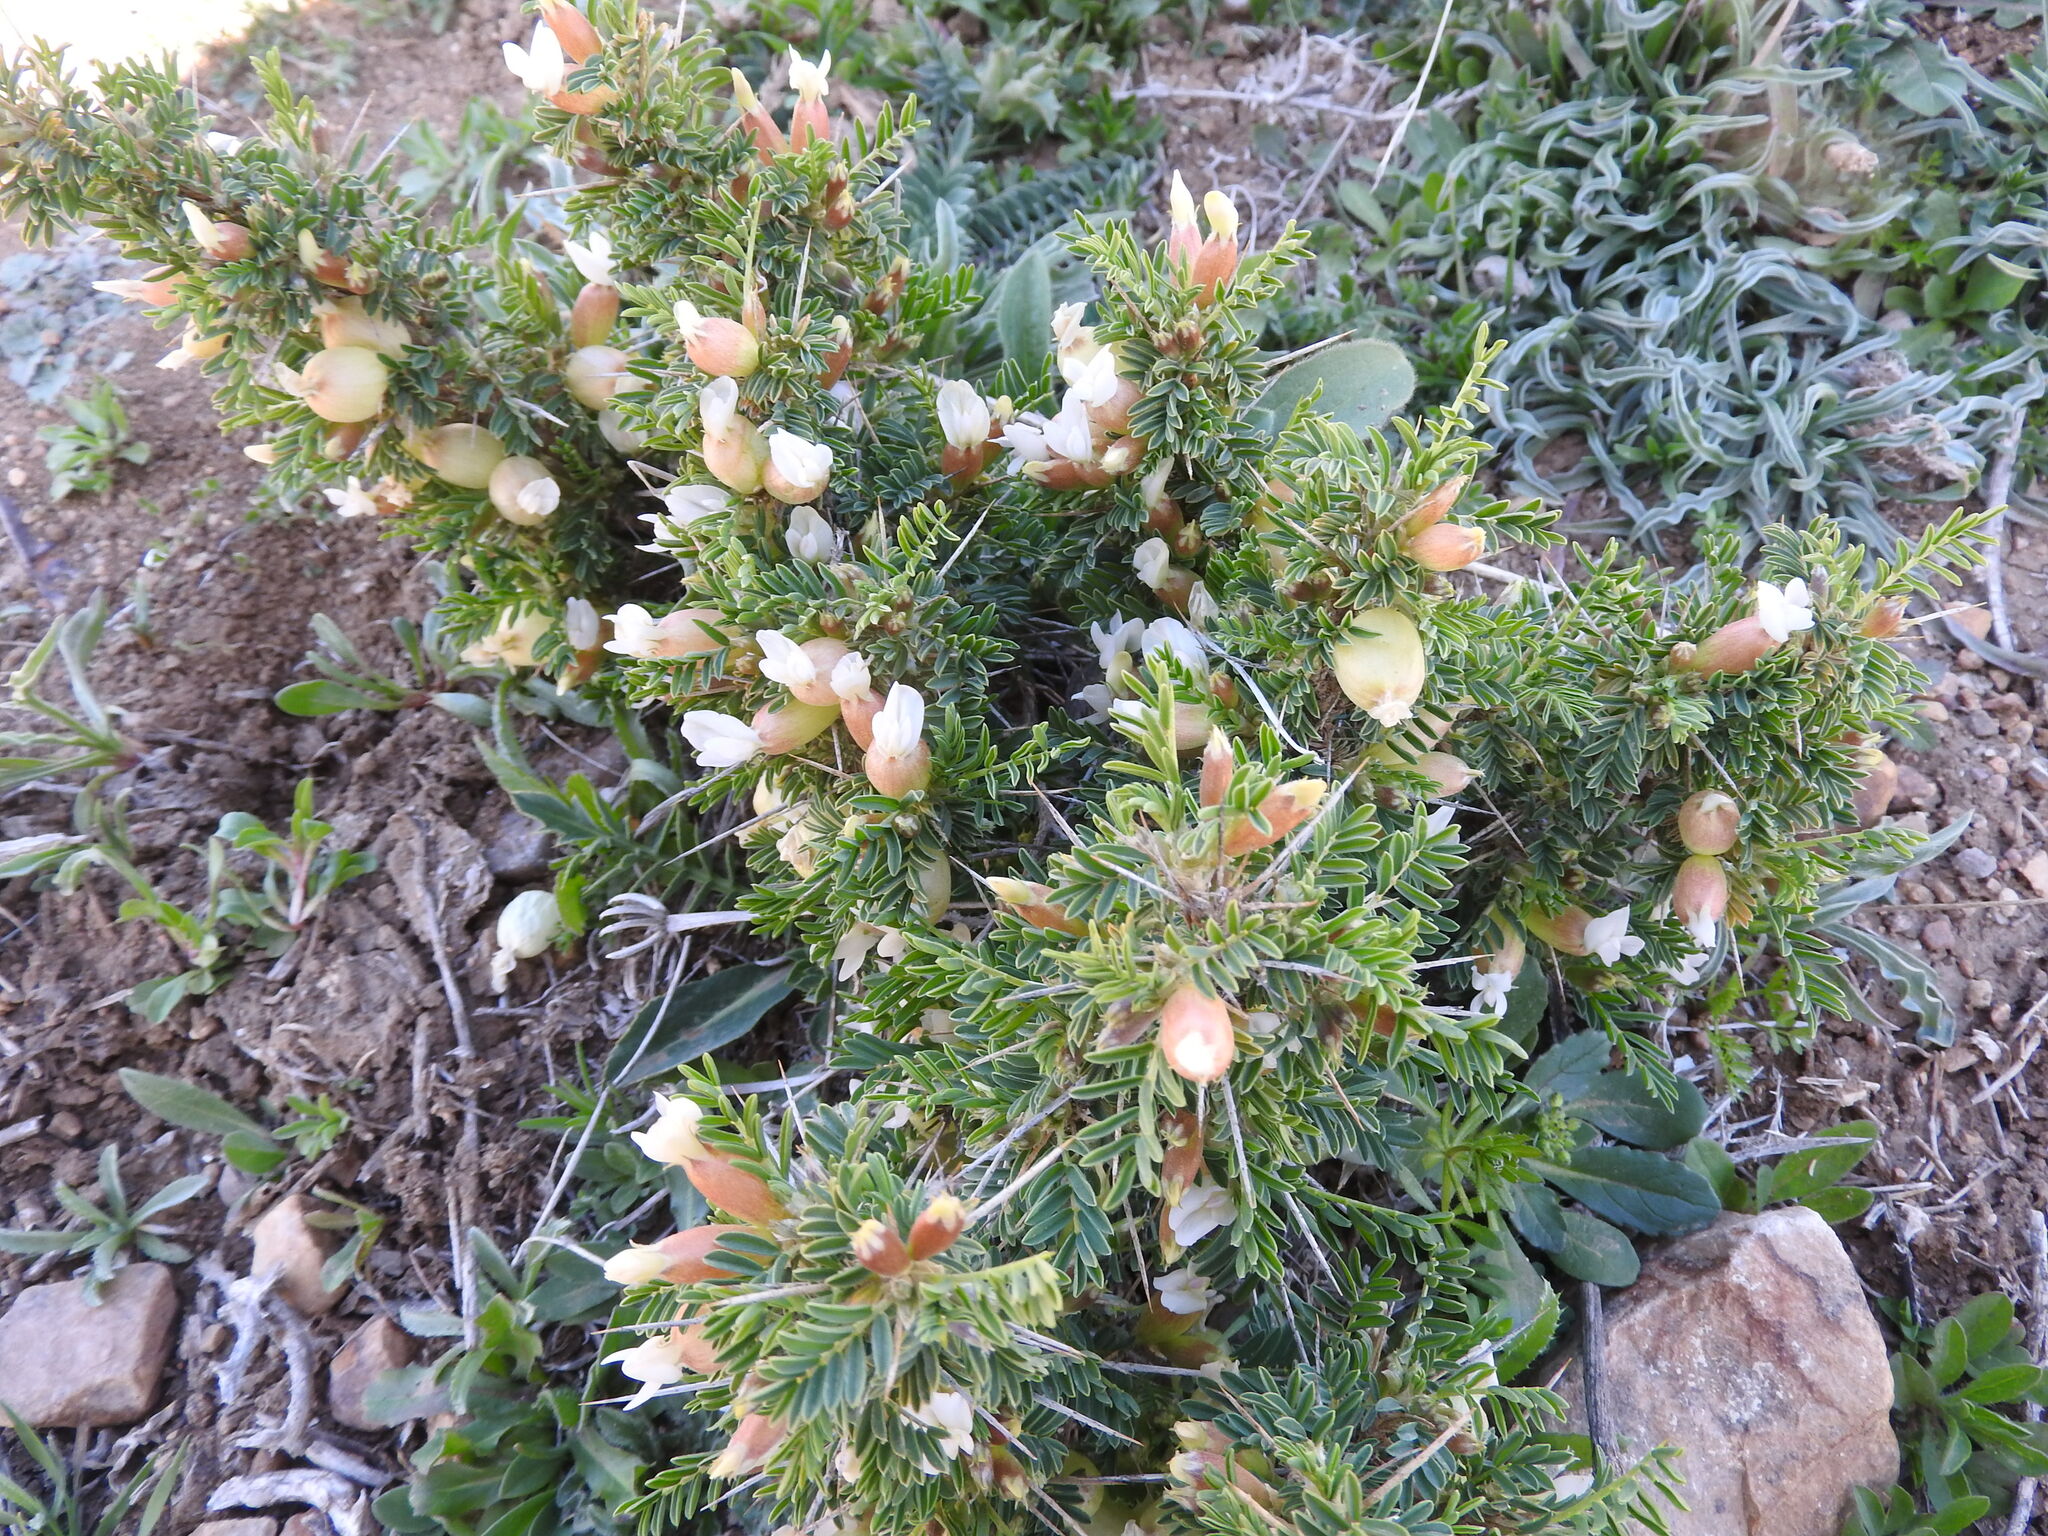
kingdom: Plantae
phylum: Tracheophyta
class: Magnoliopsida
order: Fabales
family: Fabaceae
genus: Astragalus
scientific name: Astragalus armatus
